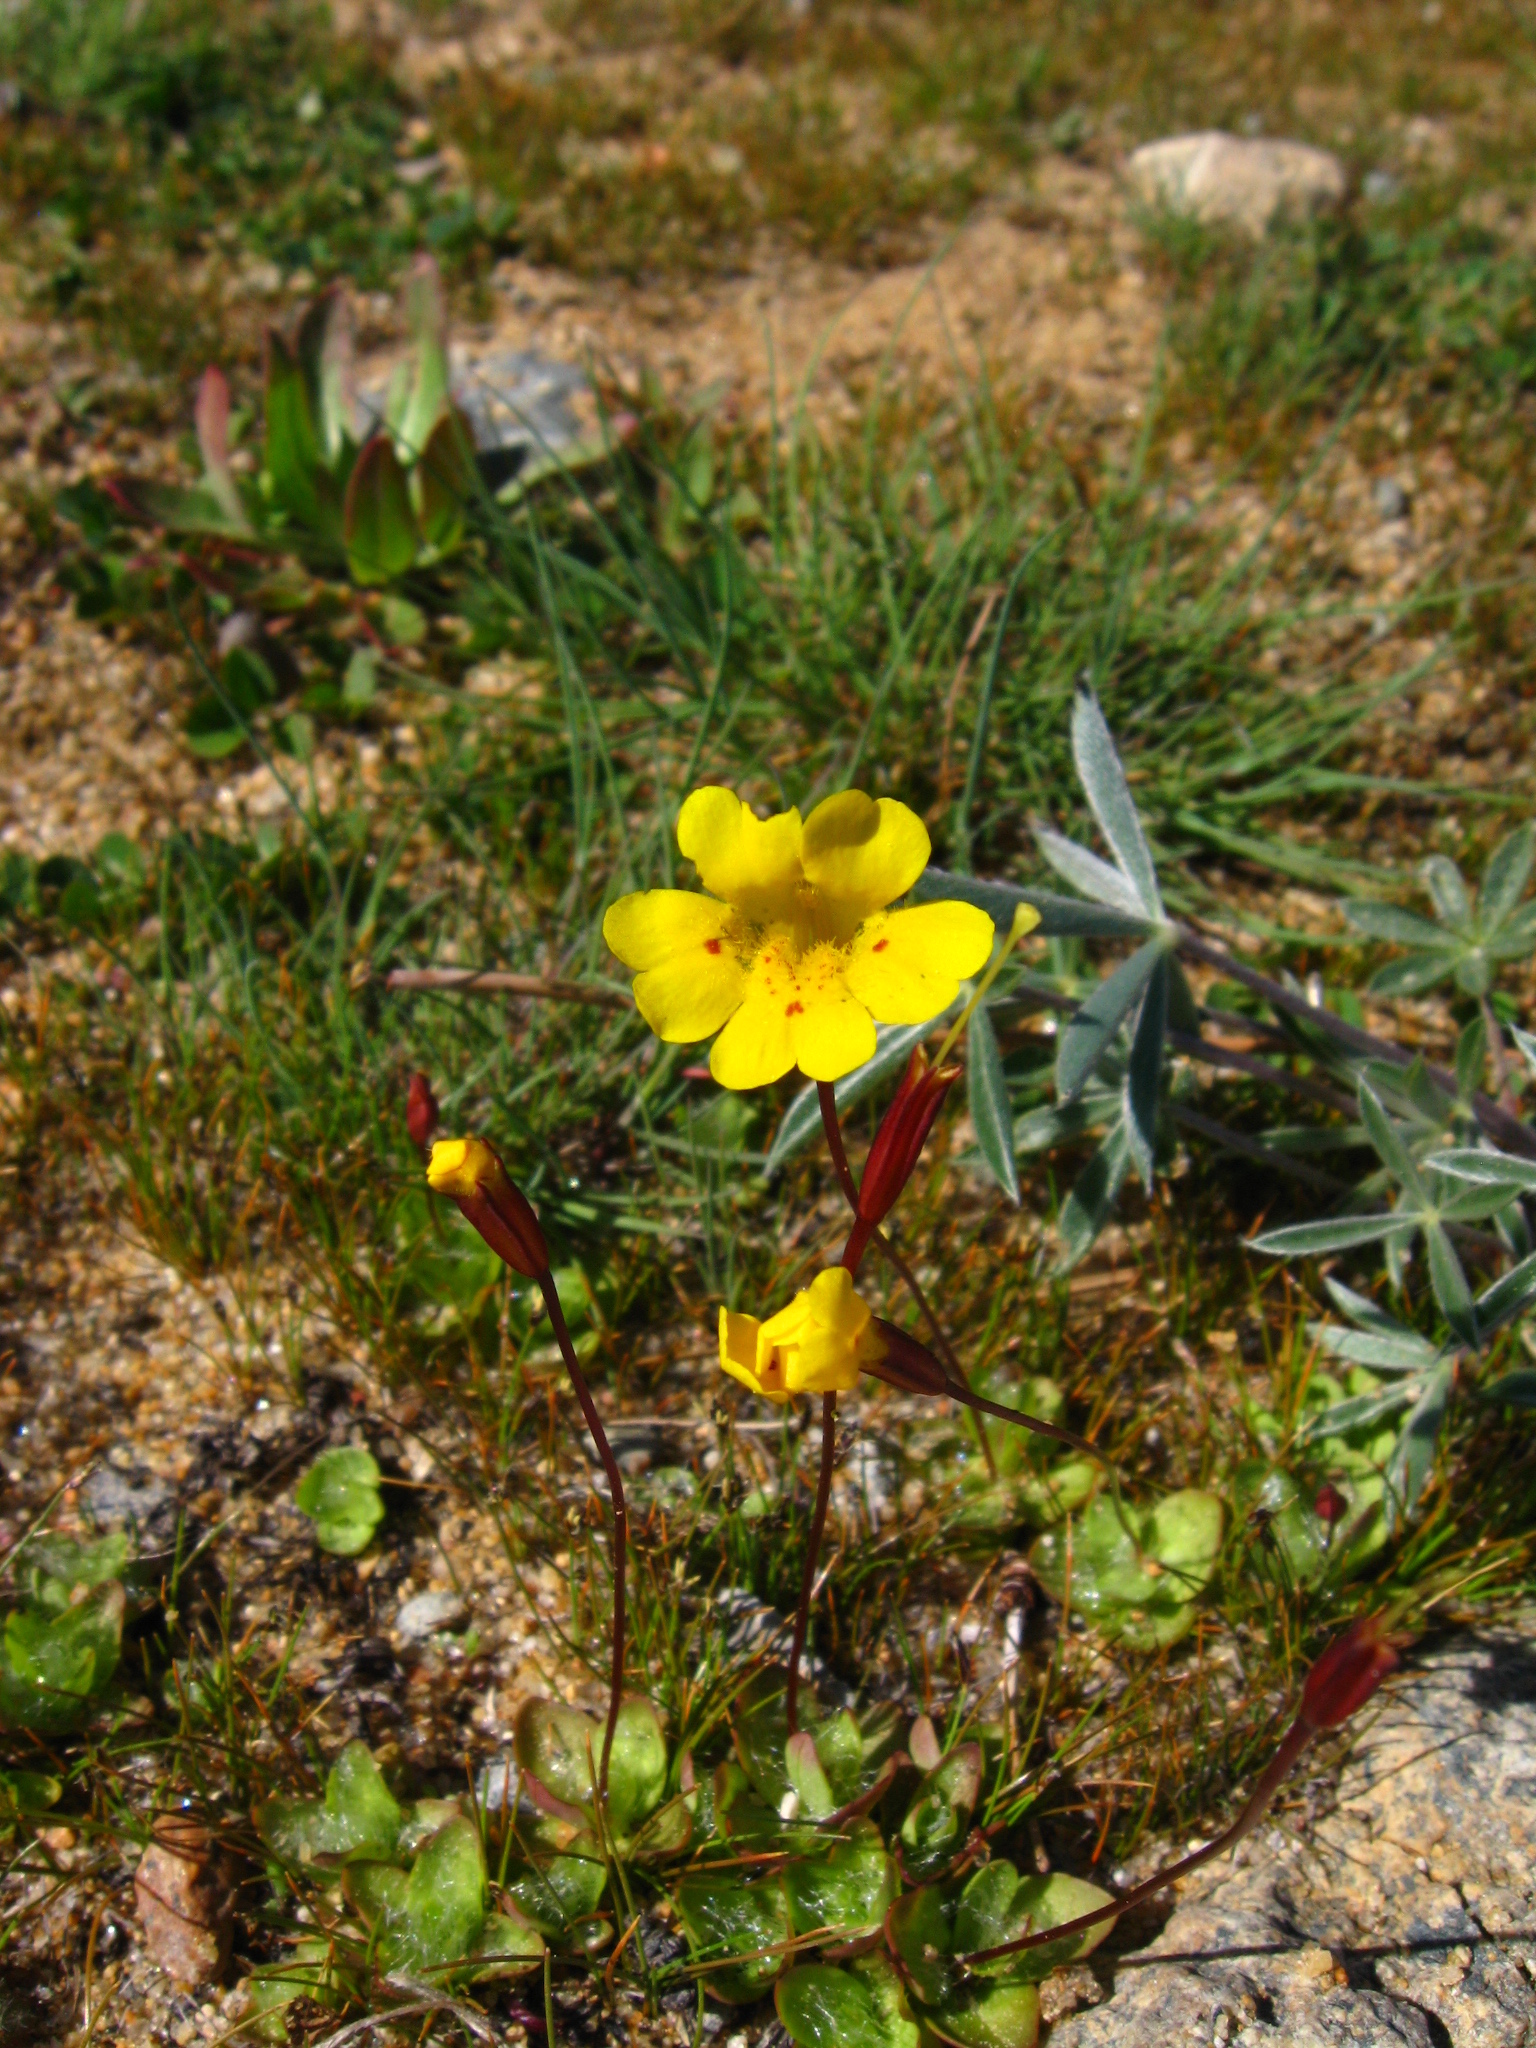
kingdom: Plantae
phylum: Tracheophyta
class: Magnoliopsida
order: Lamiales
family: Phrymaceae
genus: Erythranthe
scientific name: Erythranthe primuloides
